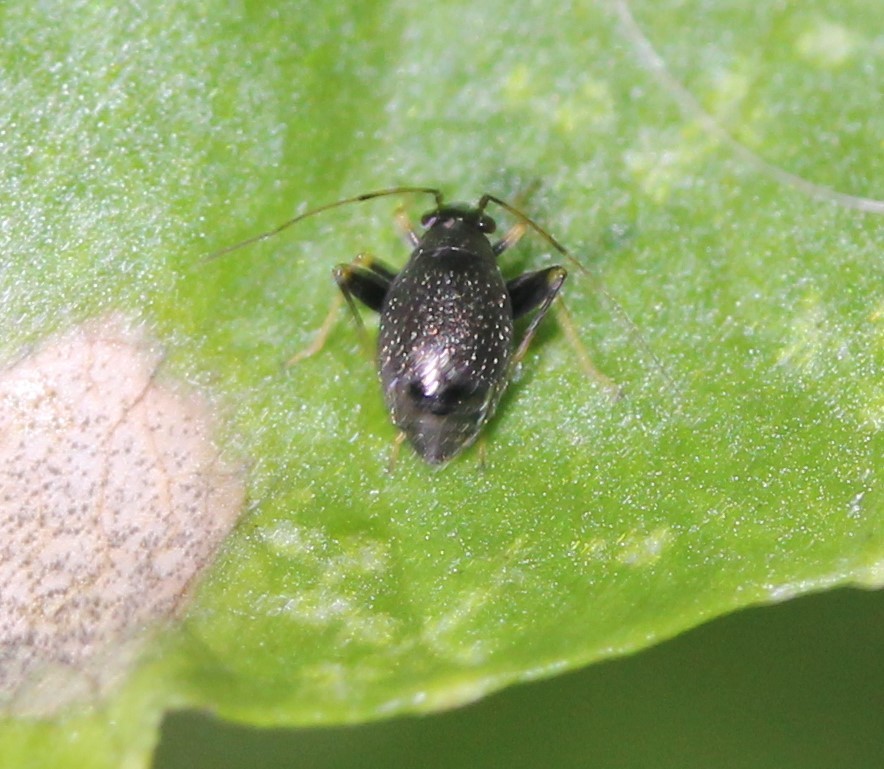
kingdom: Animalia
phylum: Arthropoda
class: Insecta
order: Hemiptera
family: Miridae
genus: Microtechnites
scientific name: Microtechnites bractatus
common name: Garden fleahopper
